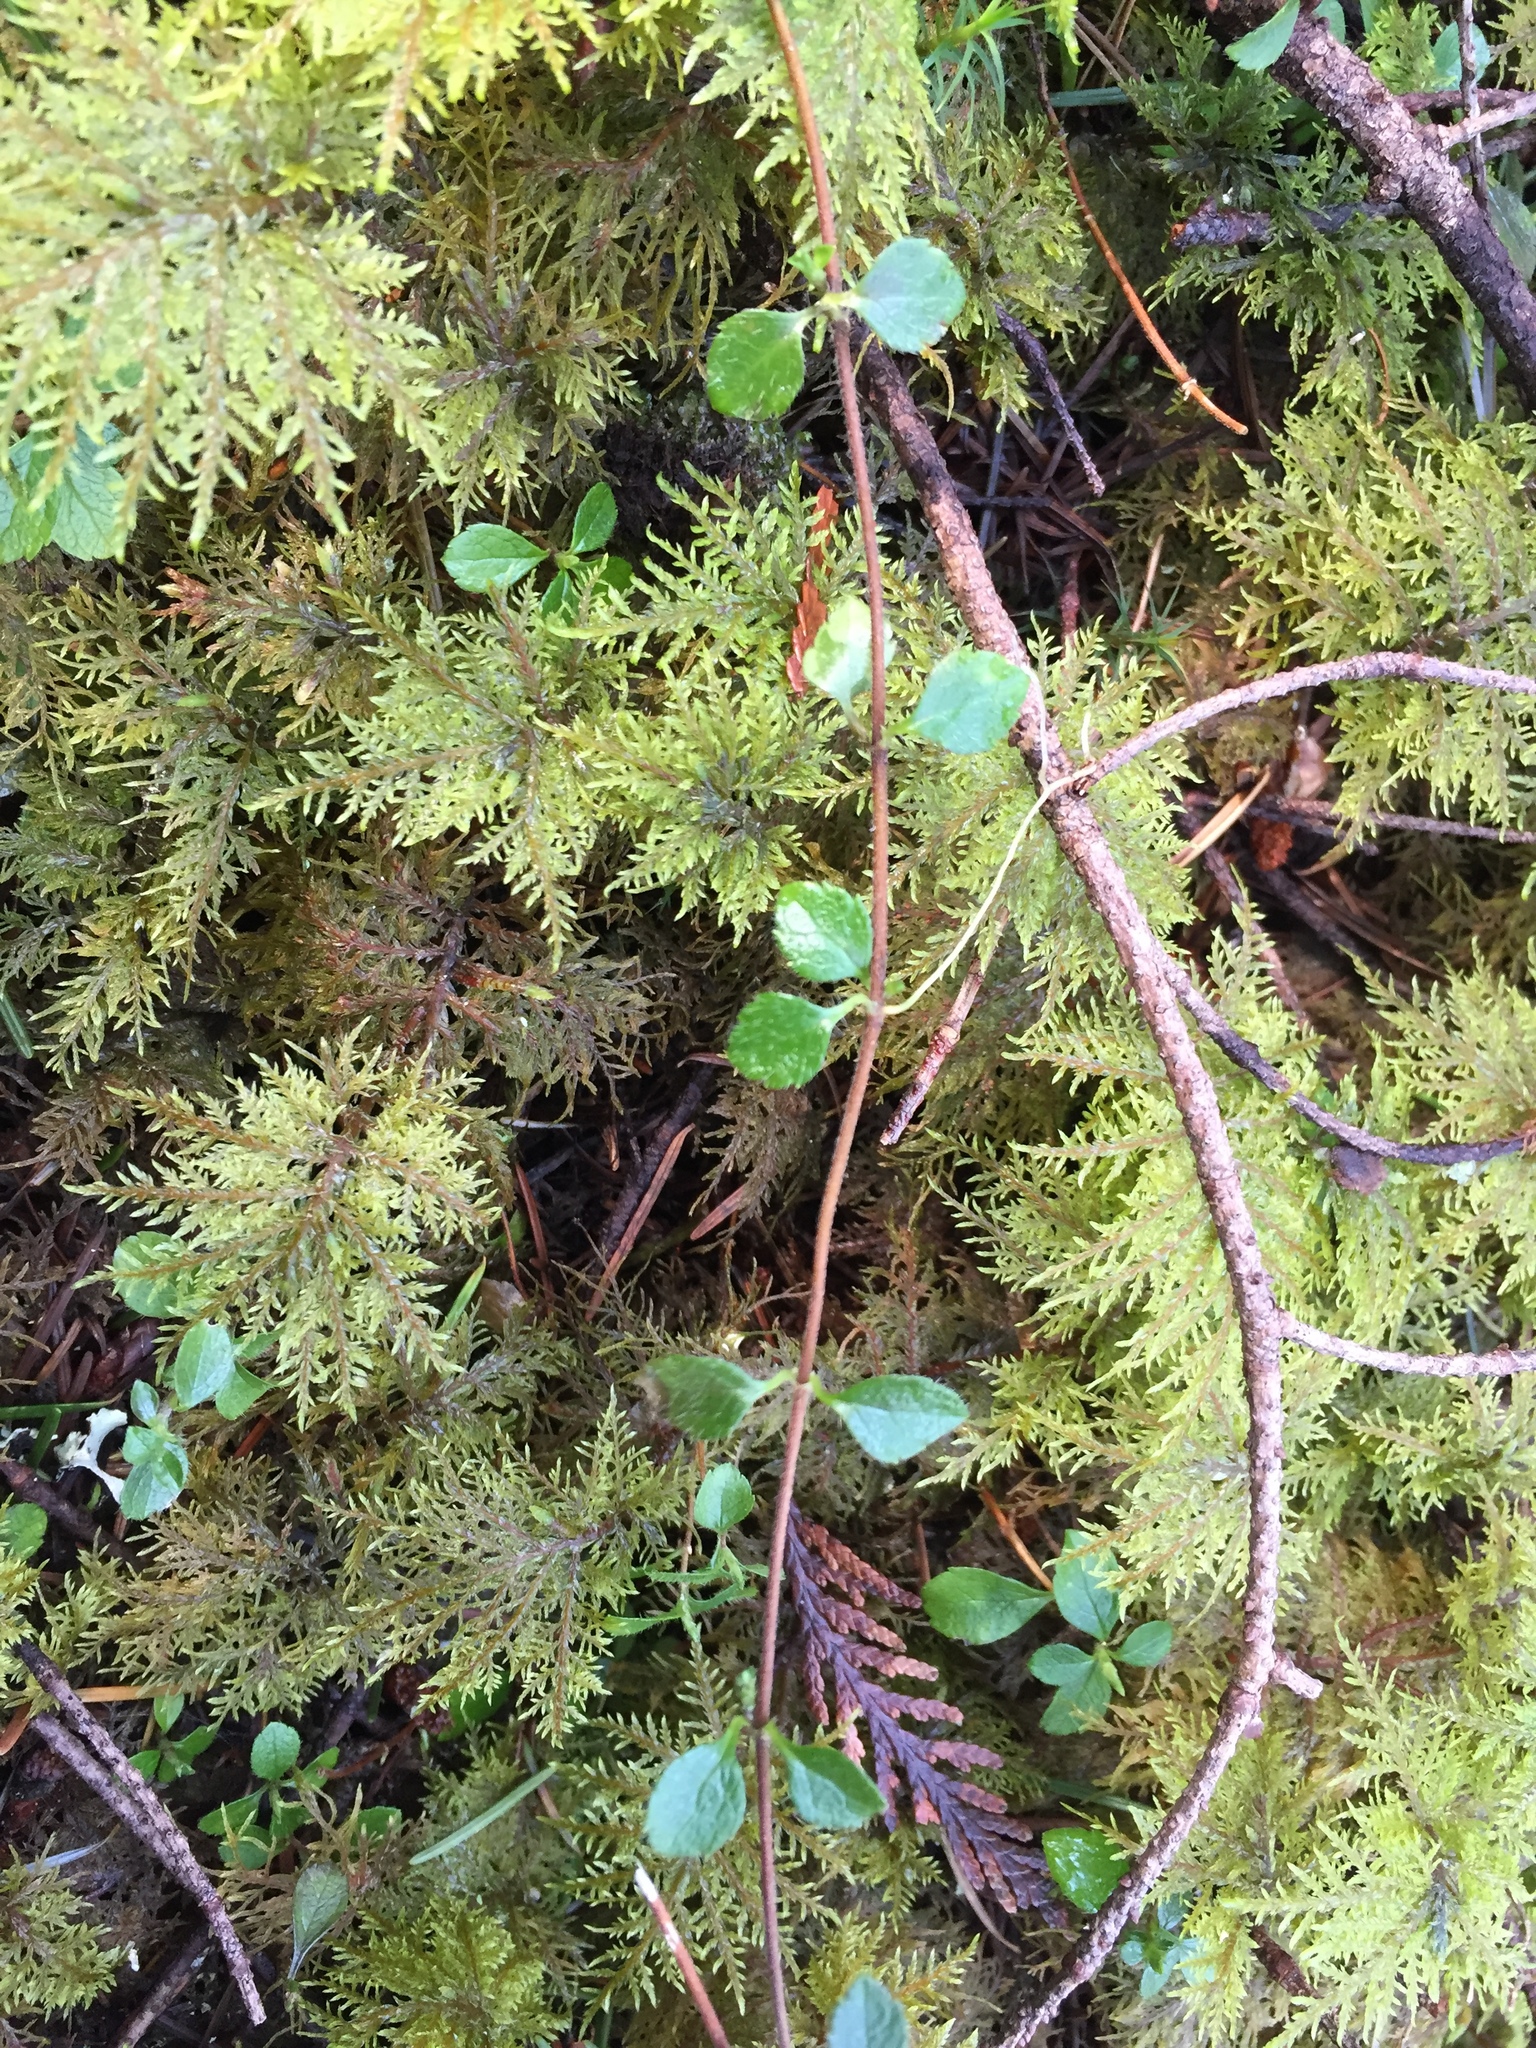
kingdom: Plantae
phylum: Tracheophyta
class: Magnoliopsida
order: Dipsacales
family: Caprifoliaceae
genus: Linnaea
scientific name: Linnaea borealis
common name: Twinflower
